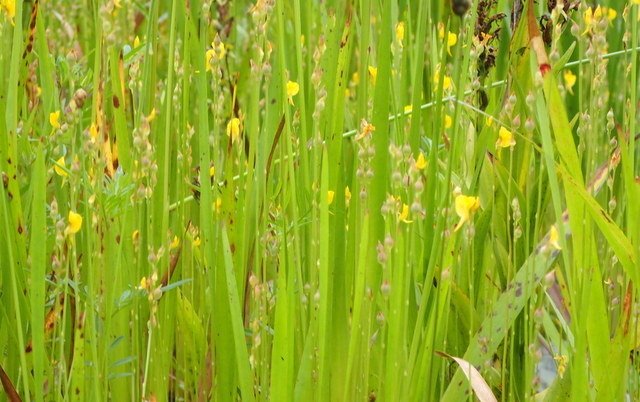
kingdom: Plantae
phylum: Tracheophyta
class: Magnoliopsida
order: Lamiales
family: Lentibulariaceae
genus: Utricularia
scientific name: Utricularia juncea
